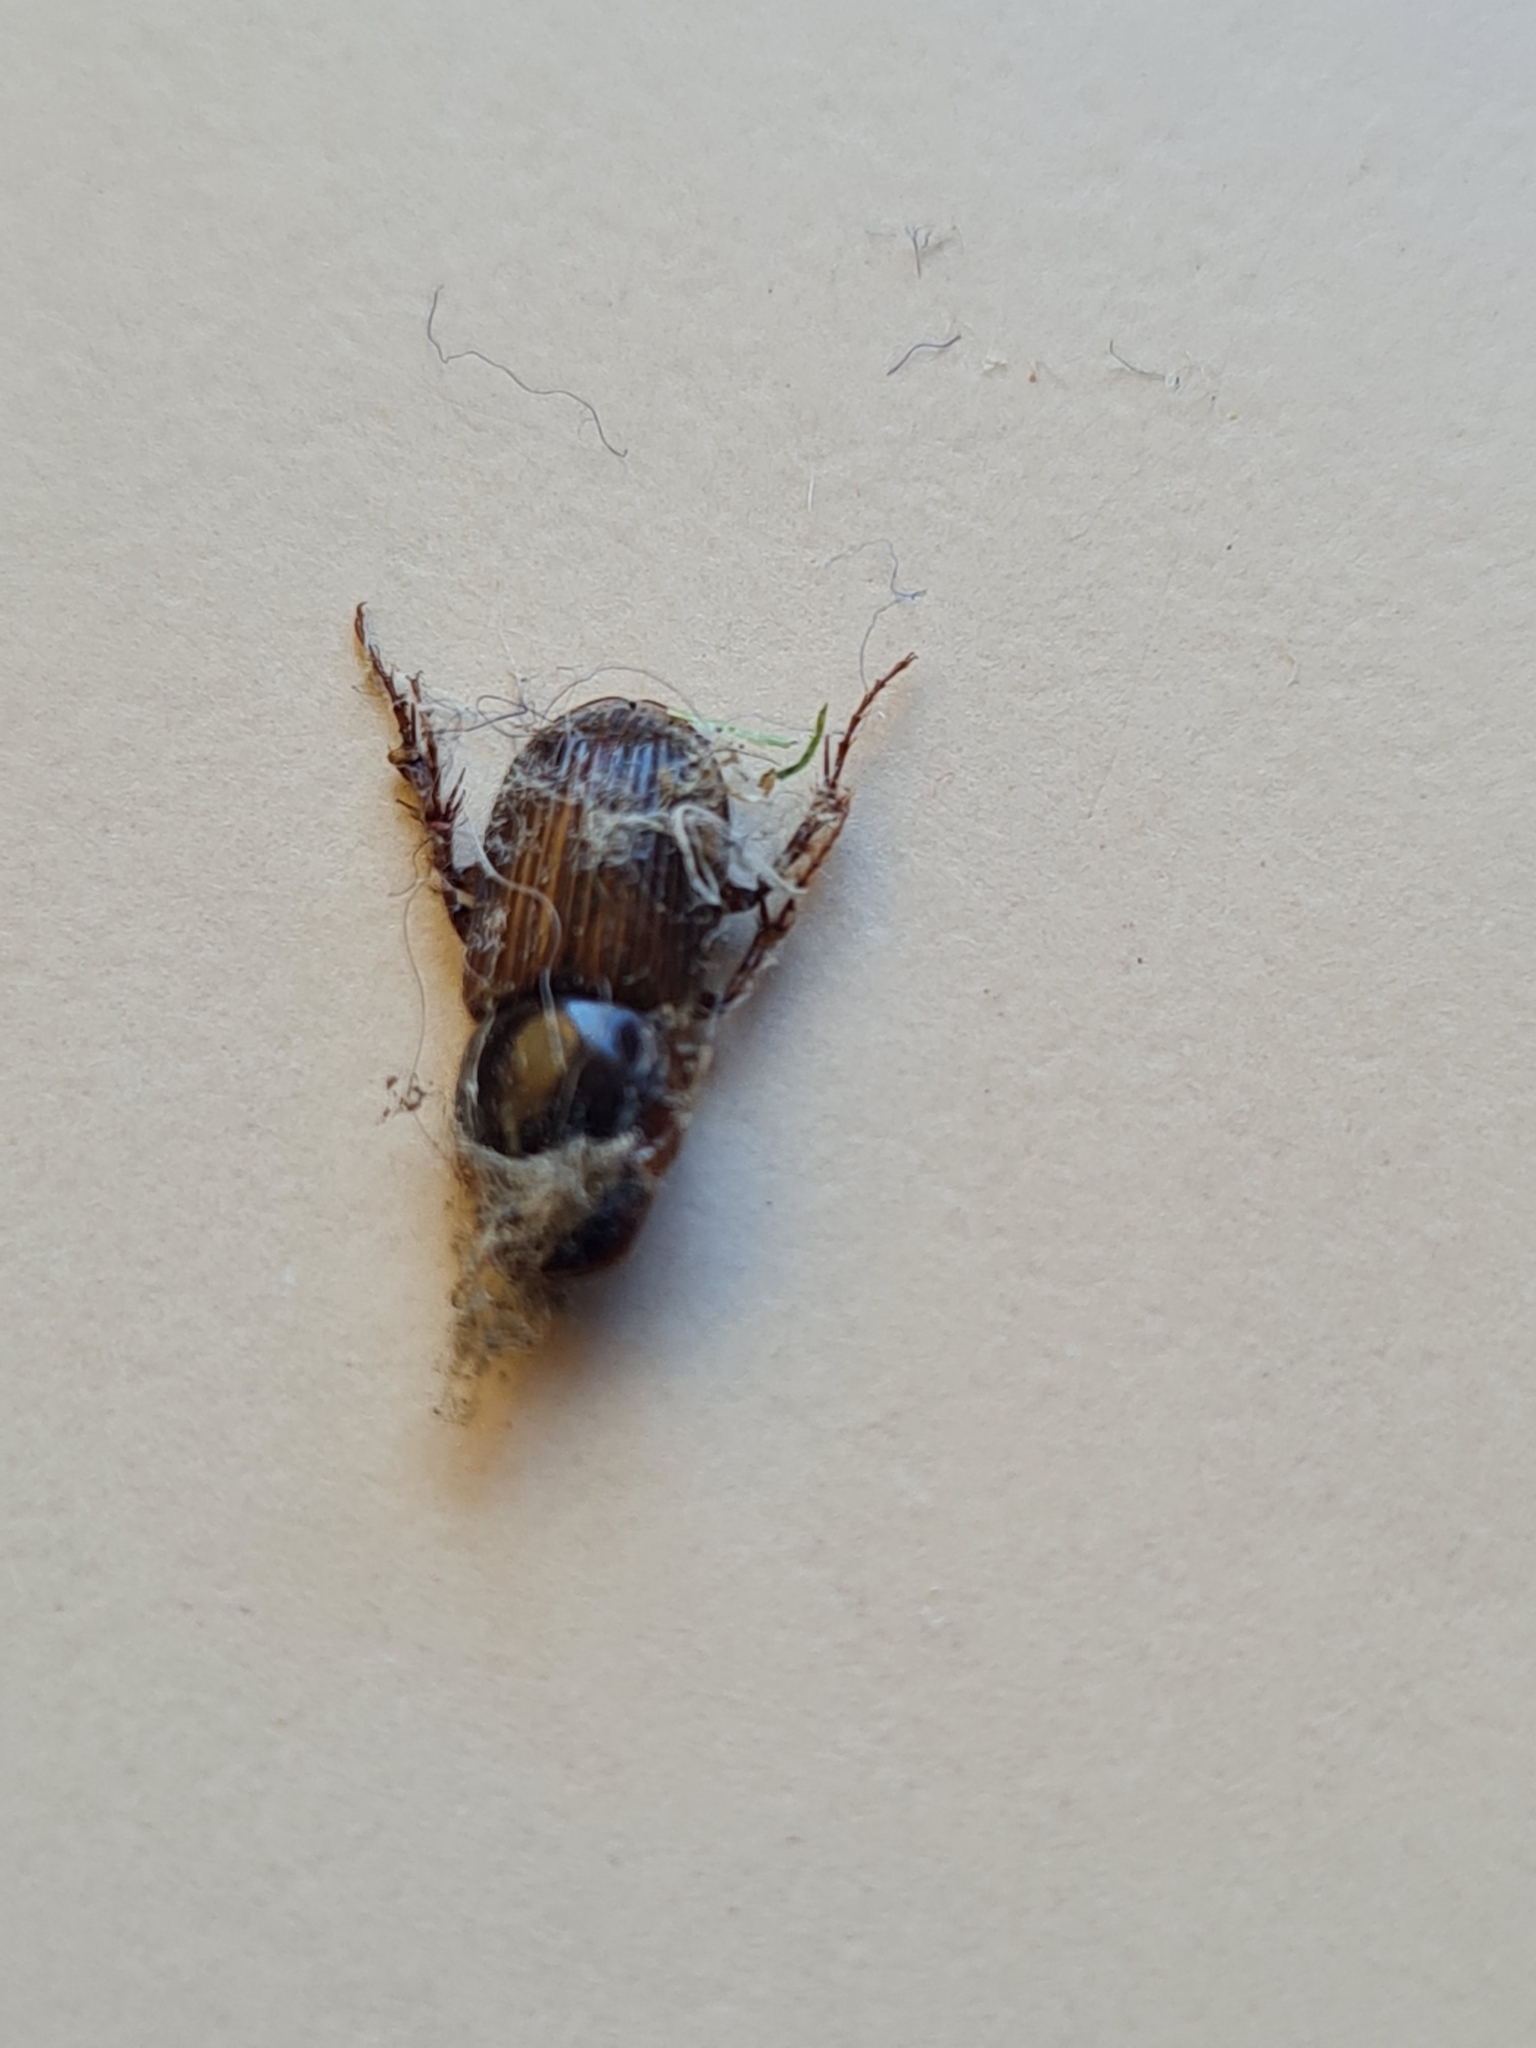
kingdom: Animalia
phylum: Arthropoda
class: Insecta
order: Coleoptera
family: Scarabaeidae
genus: Acrossidius
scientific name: Acrossidius tasmaniae
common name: Black-headed pasture cockchafer
